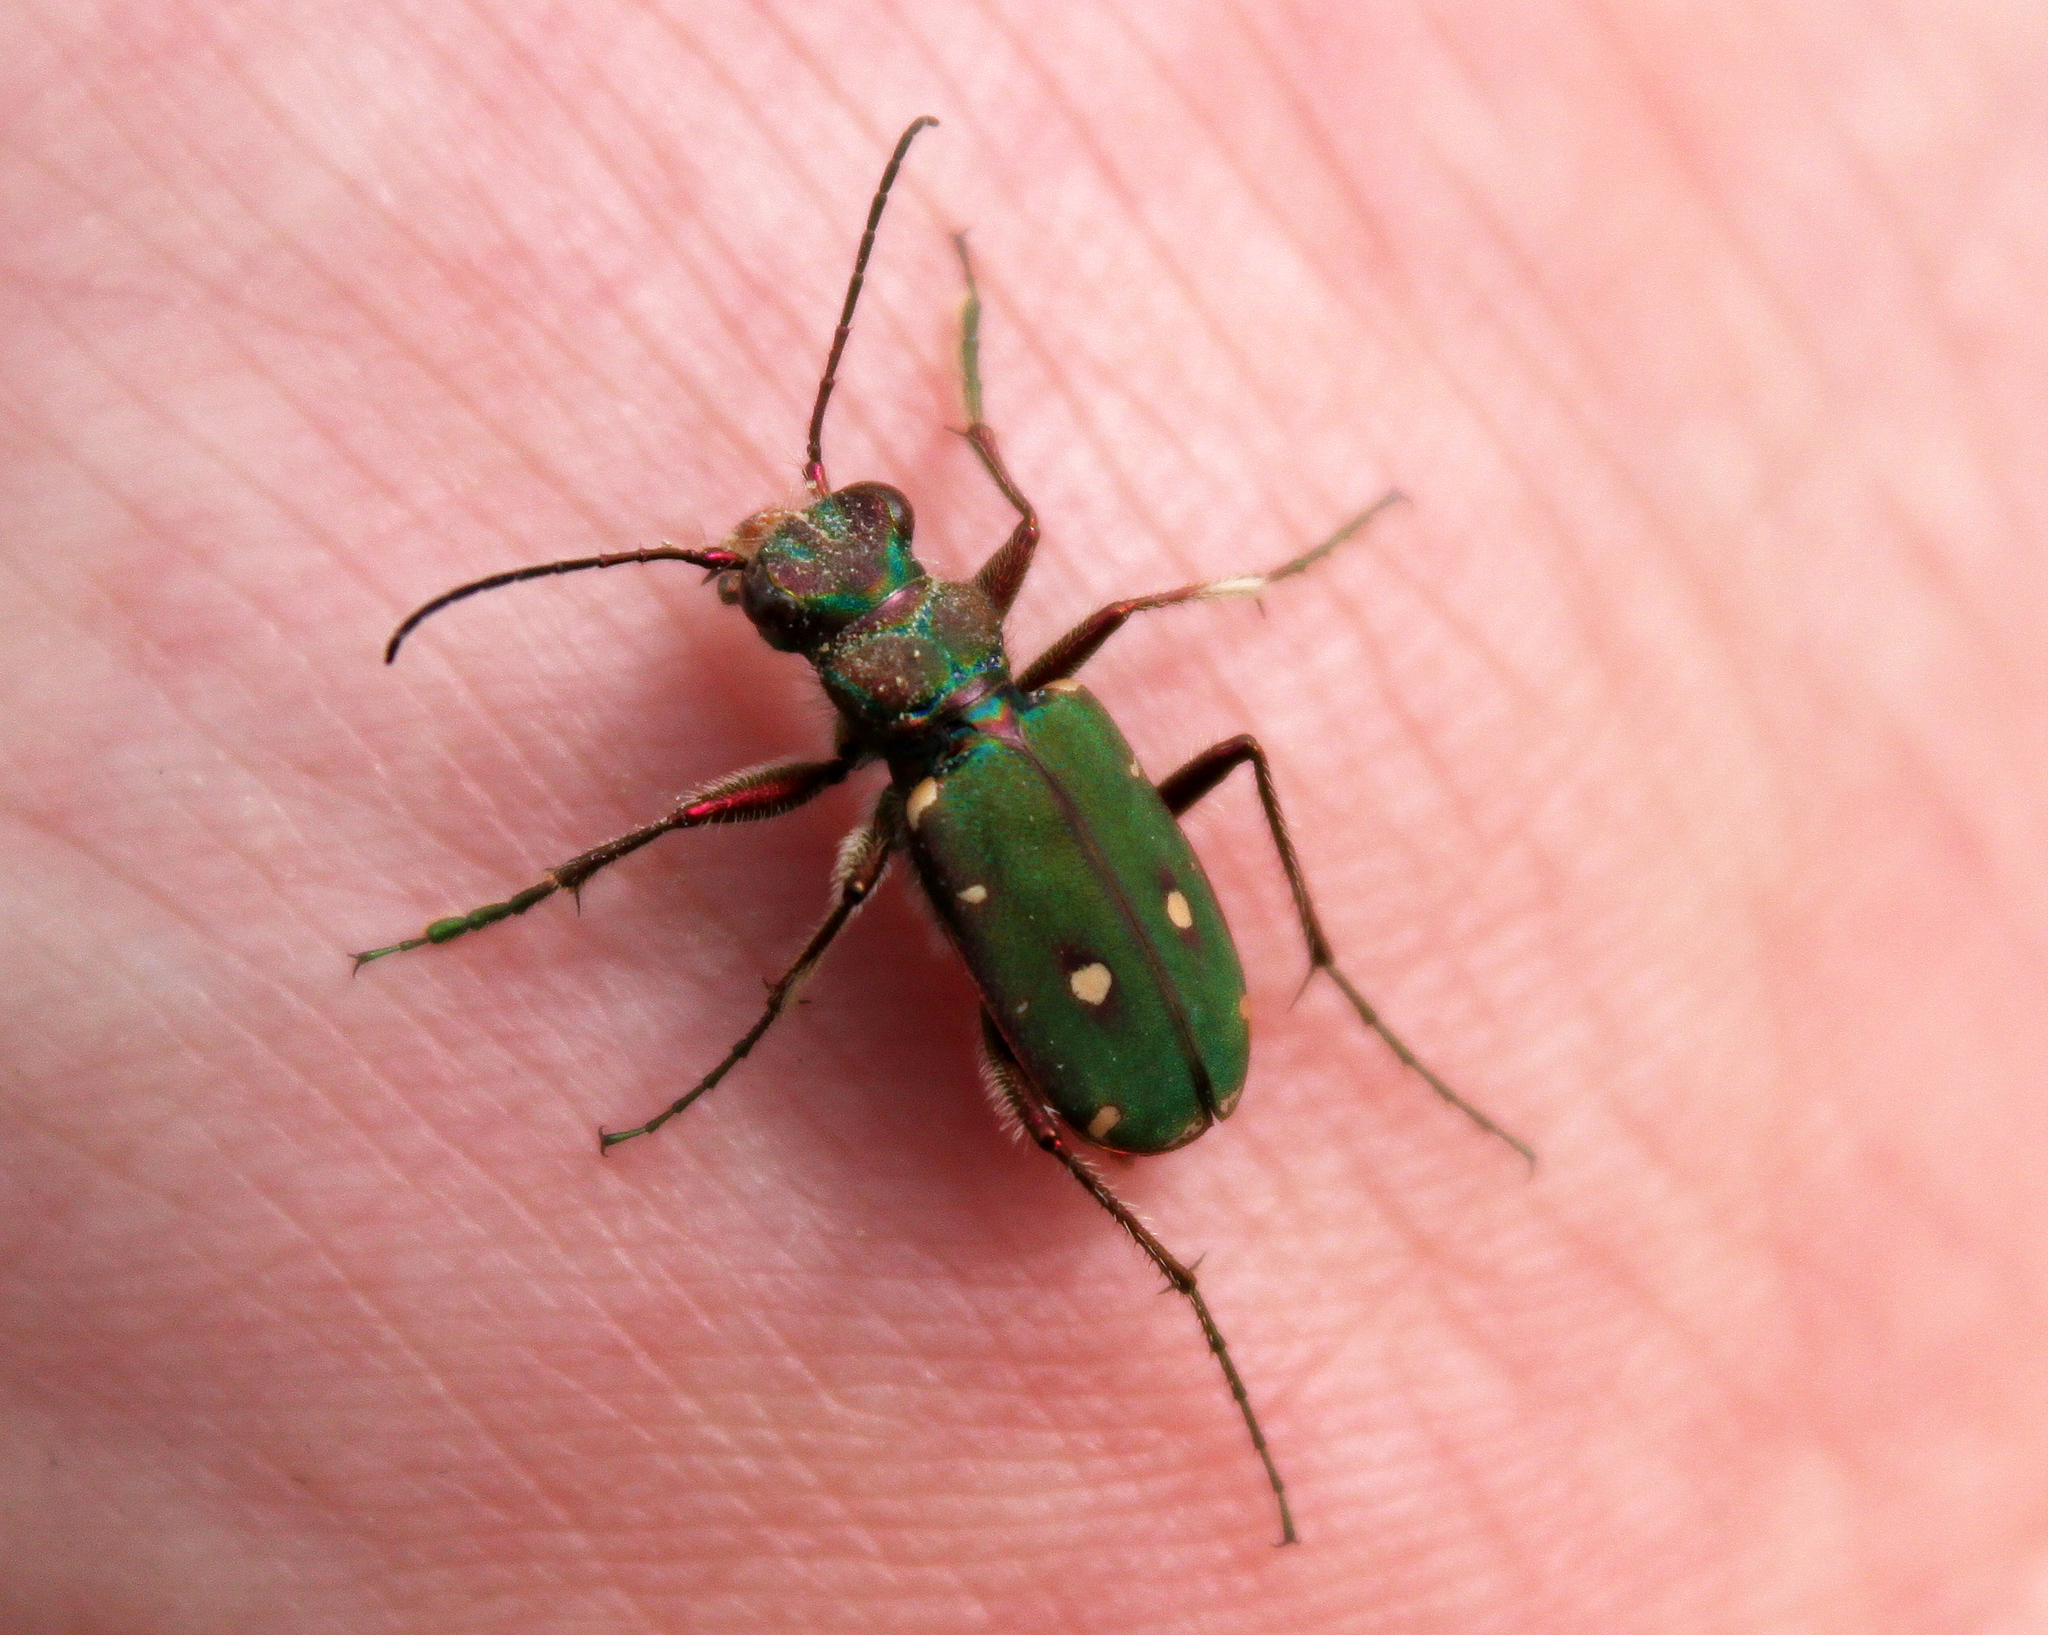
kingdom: Animalia
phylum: Arthropoda
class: Insecta
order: Coleoptera
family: Carabidae
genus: Cicindela
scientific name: Cicindela campestris
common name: Common tiger beetle
